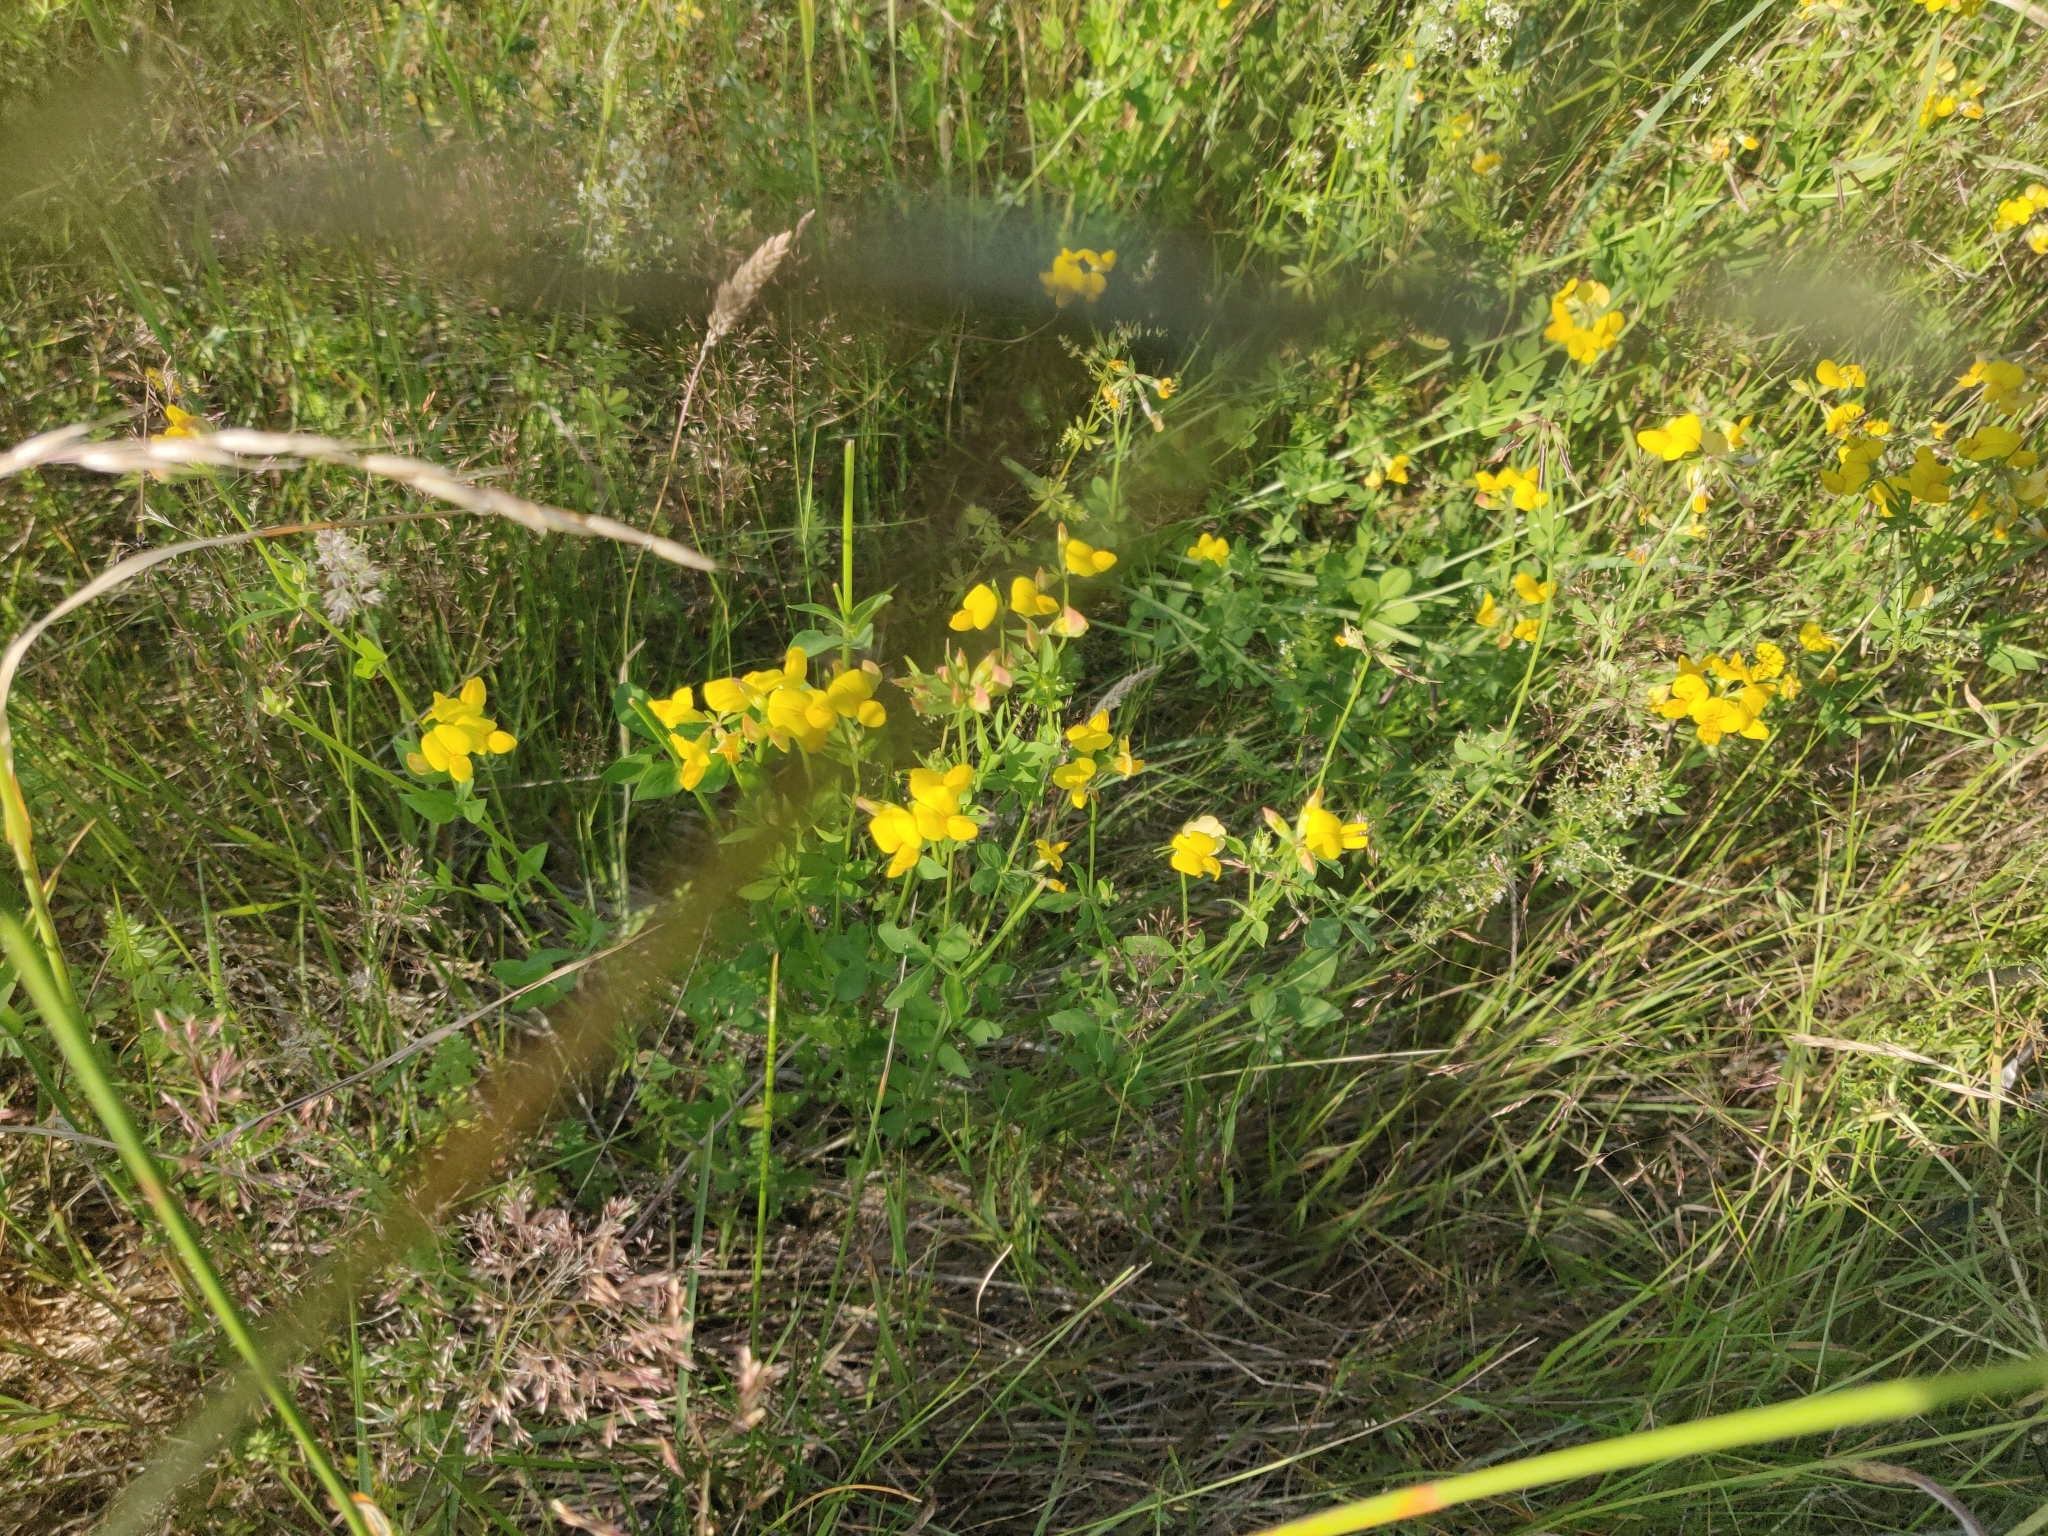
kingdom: Plantae
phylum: Tracheophyta
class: Magnoliopsida
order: Fabales
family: Fabaceae
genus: Lotus
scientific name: Lotus corniculatus
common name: Common bird's-foot-trefoil
